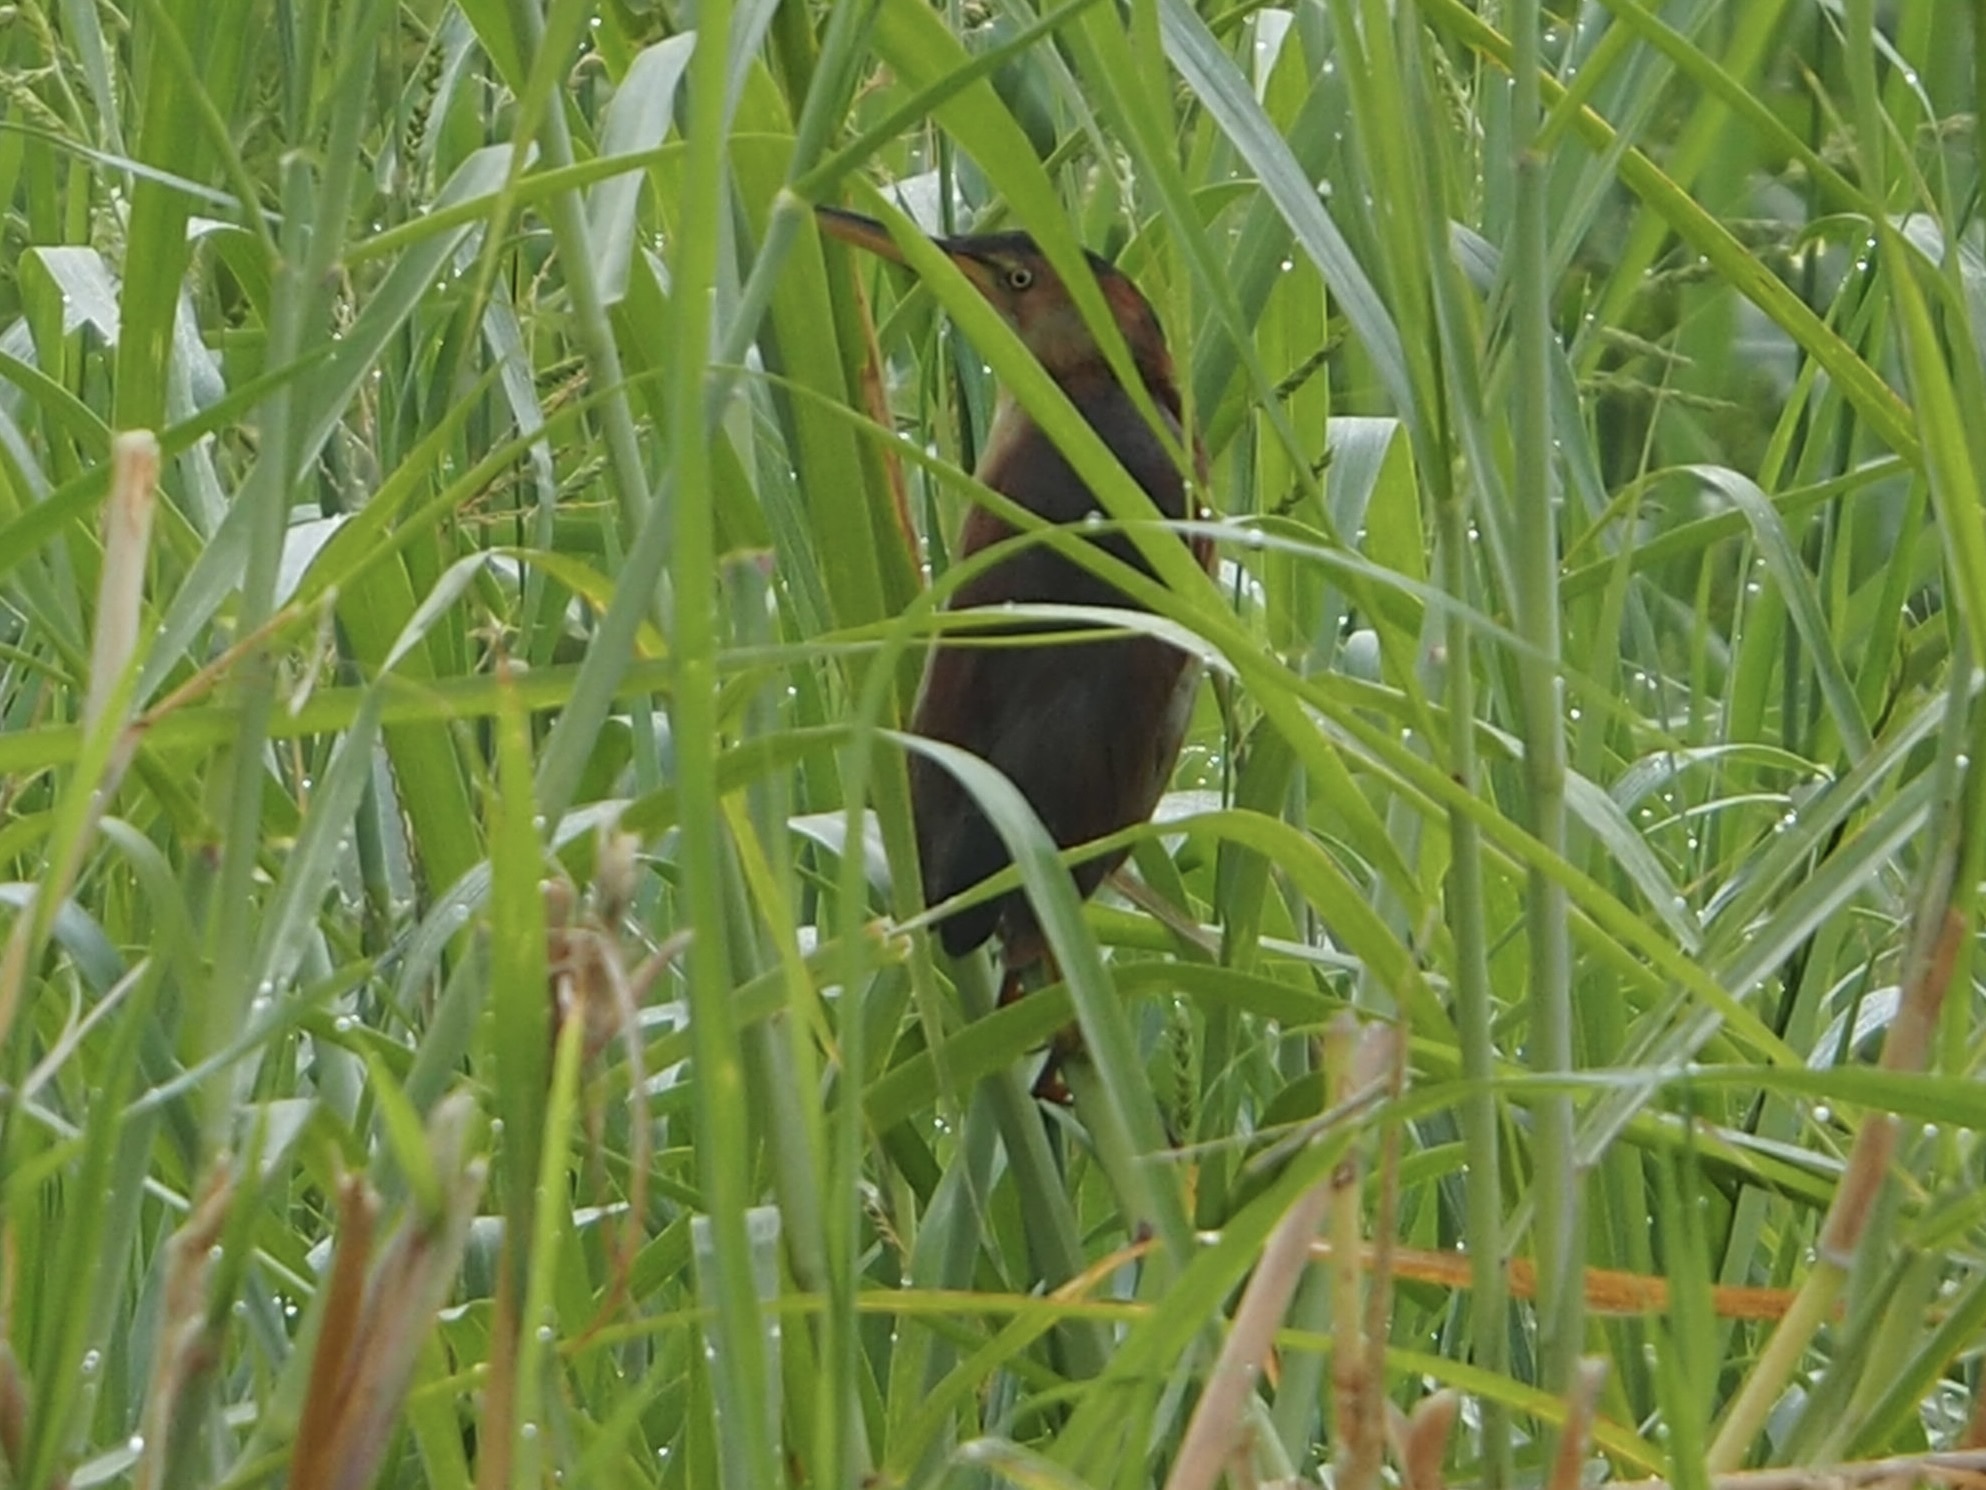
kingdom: Animalia
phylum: Chordata
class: Aves
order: Pelecaniformes
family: Ardeidae
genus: Ixobrychus
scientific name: Ixobrychus exilis
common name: Least bittern
